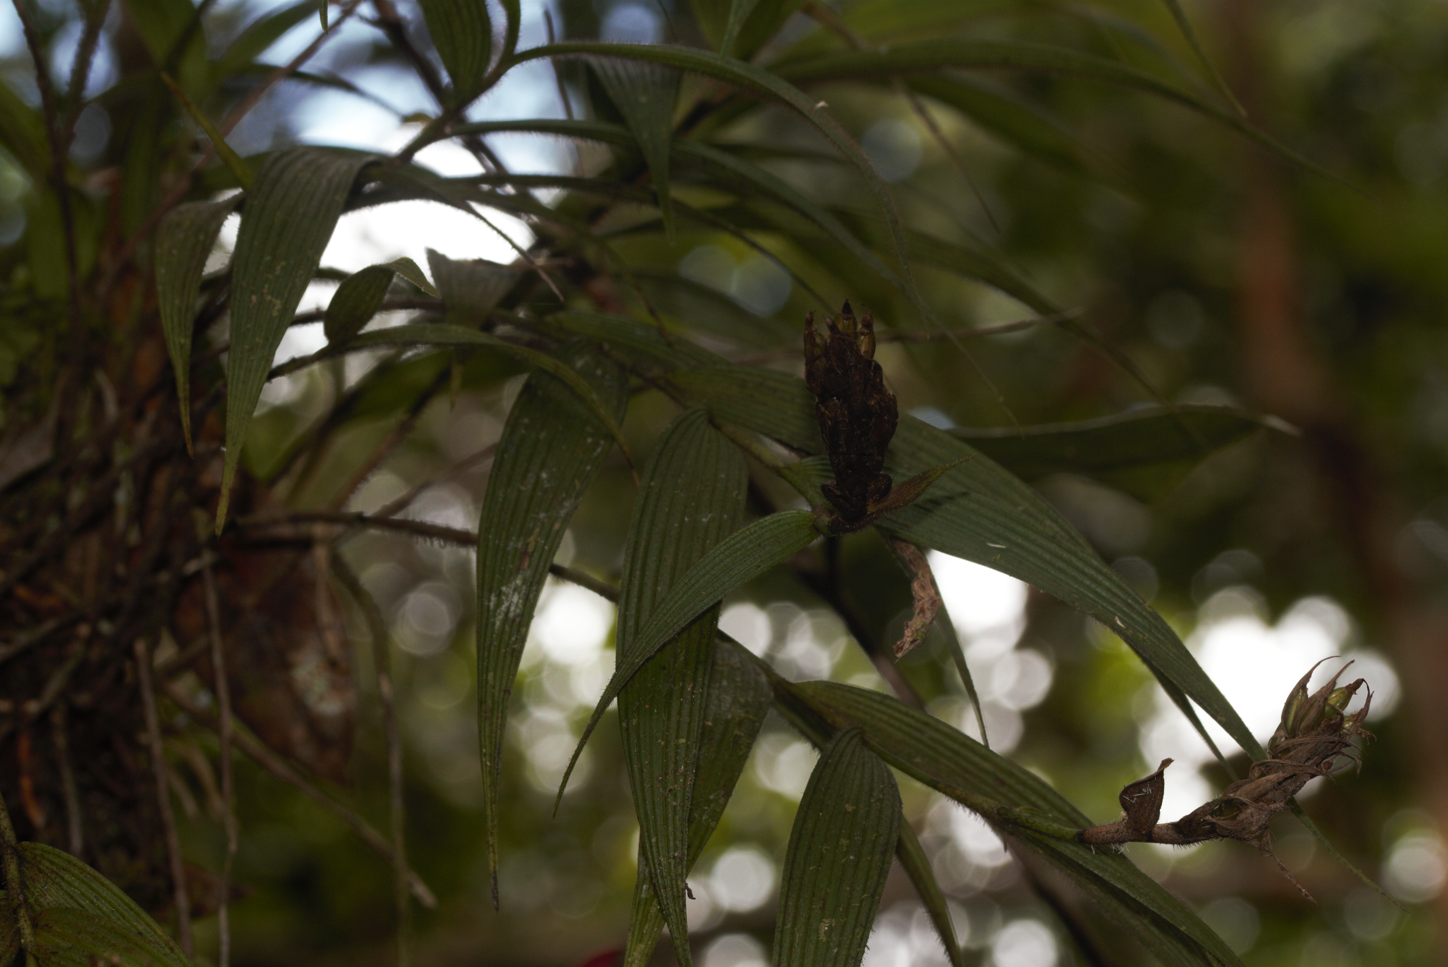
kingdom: Plantae
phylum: Tracheophyta
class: Liliopsida
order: Asparagales
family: Orchidaceae
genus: Elleanthus
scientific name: Elleanthus caravata
